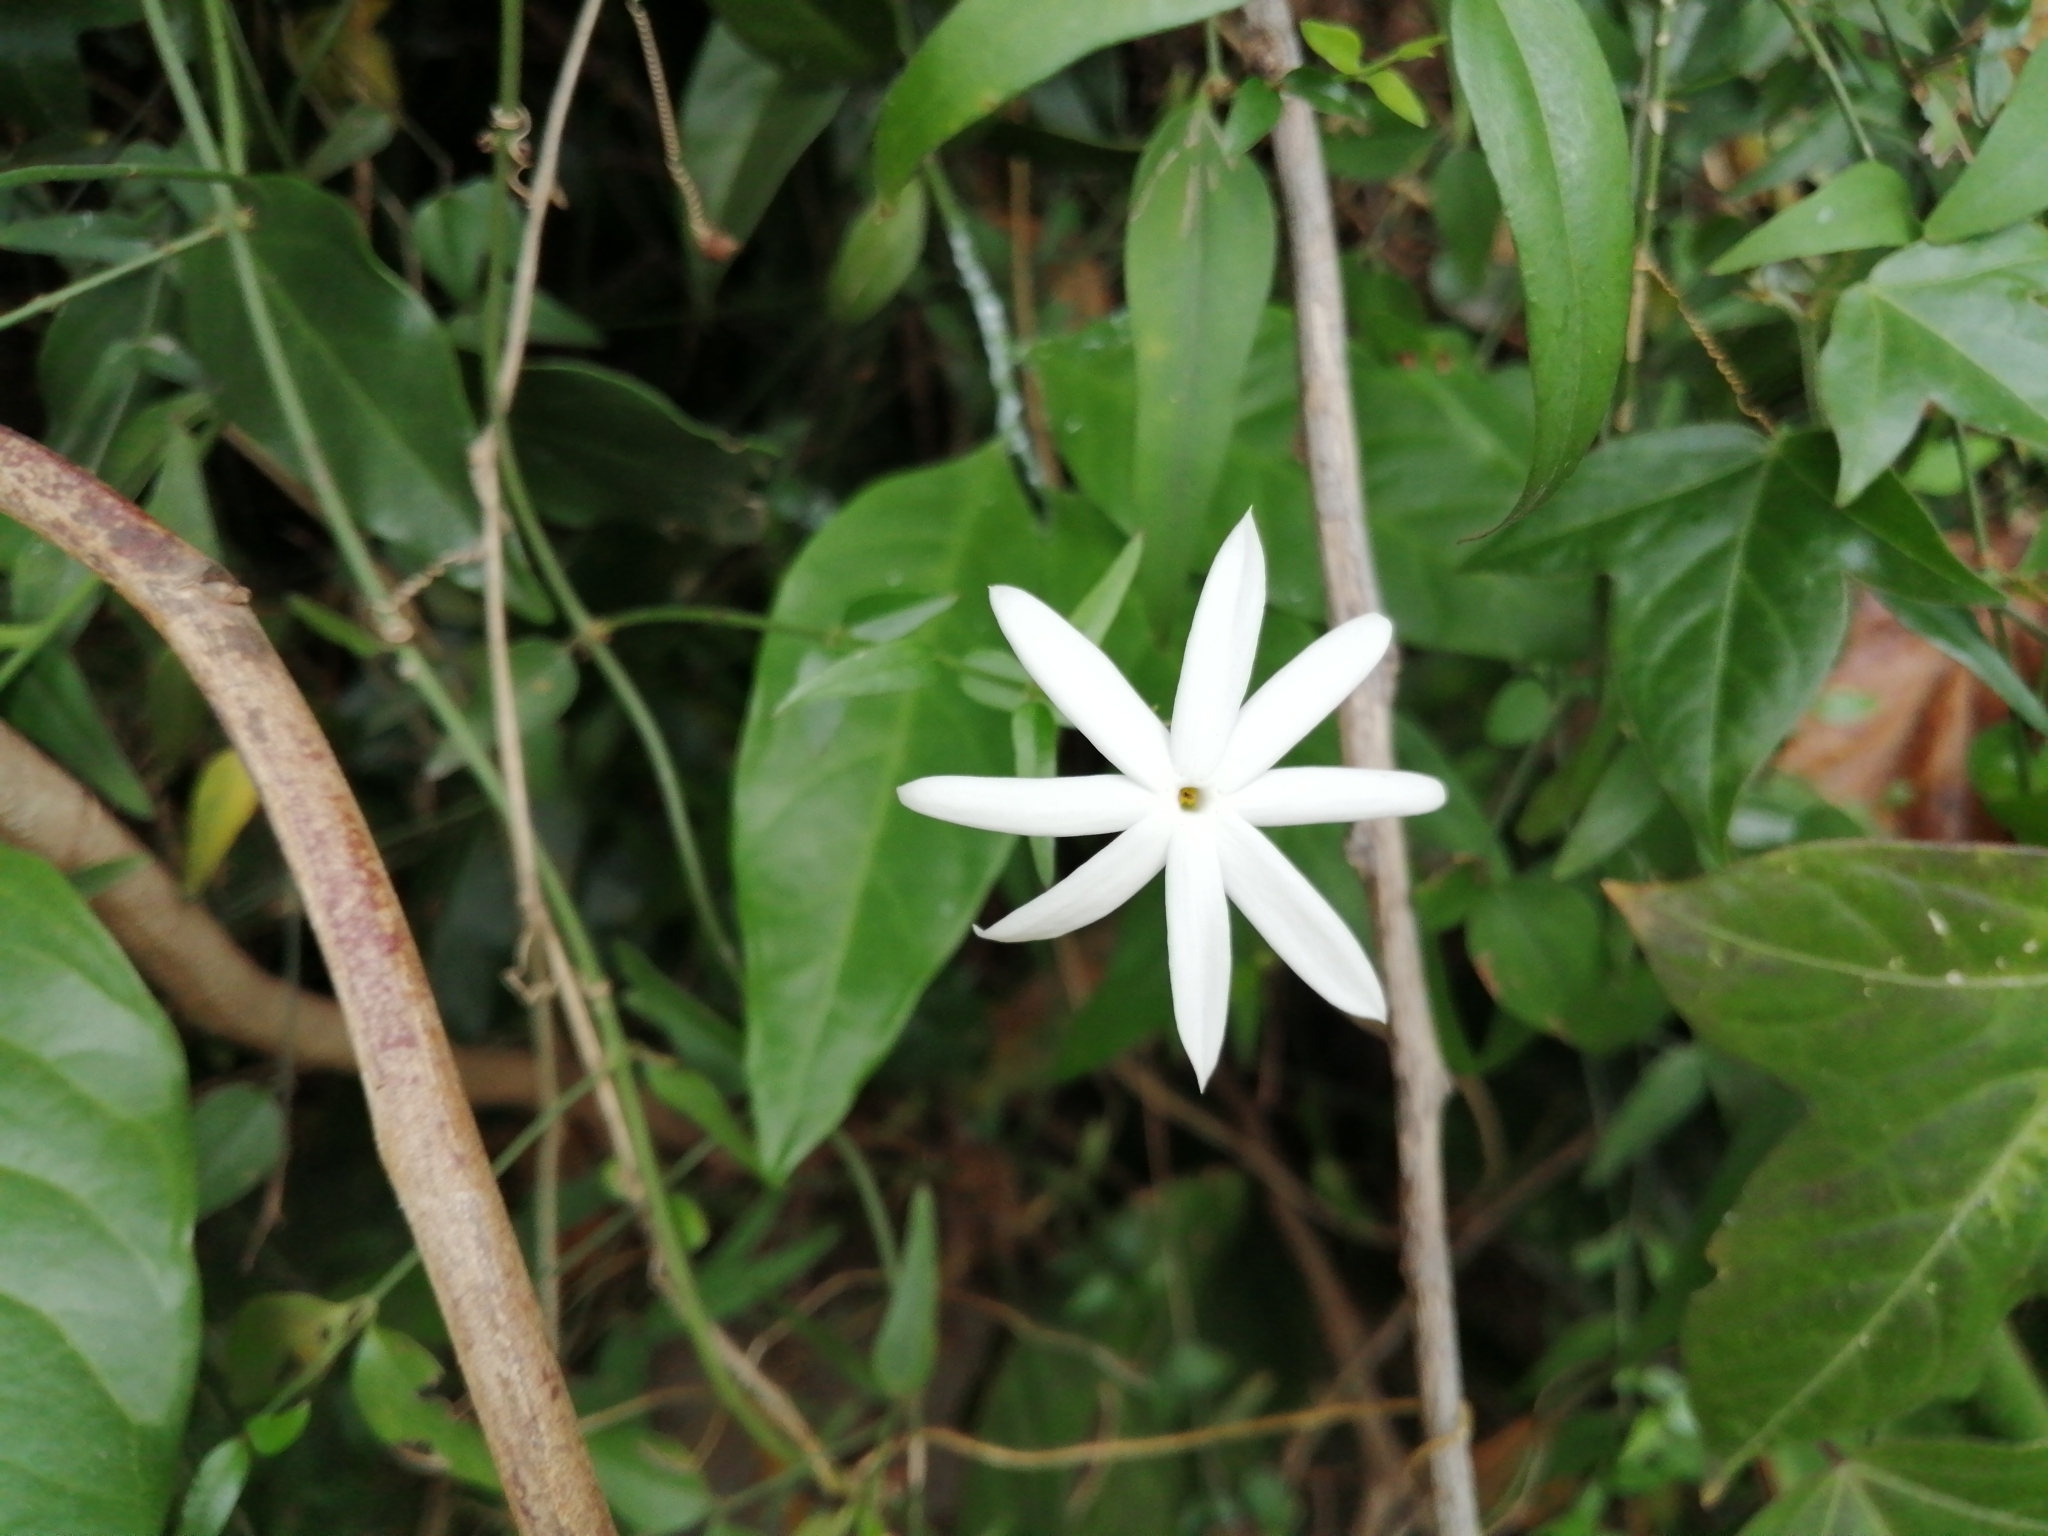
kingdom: Plantae
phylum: Tracheophyta
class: Magnoliopsida
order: Lamiales
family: Oleaceae
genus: Jasminum
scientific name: Jasminum nervosum
